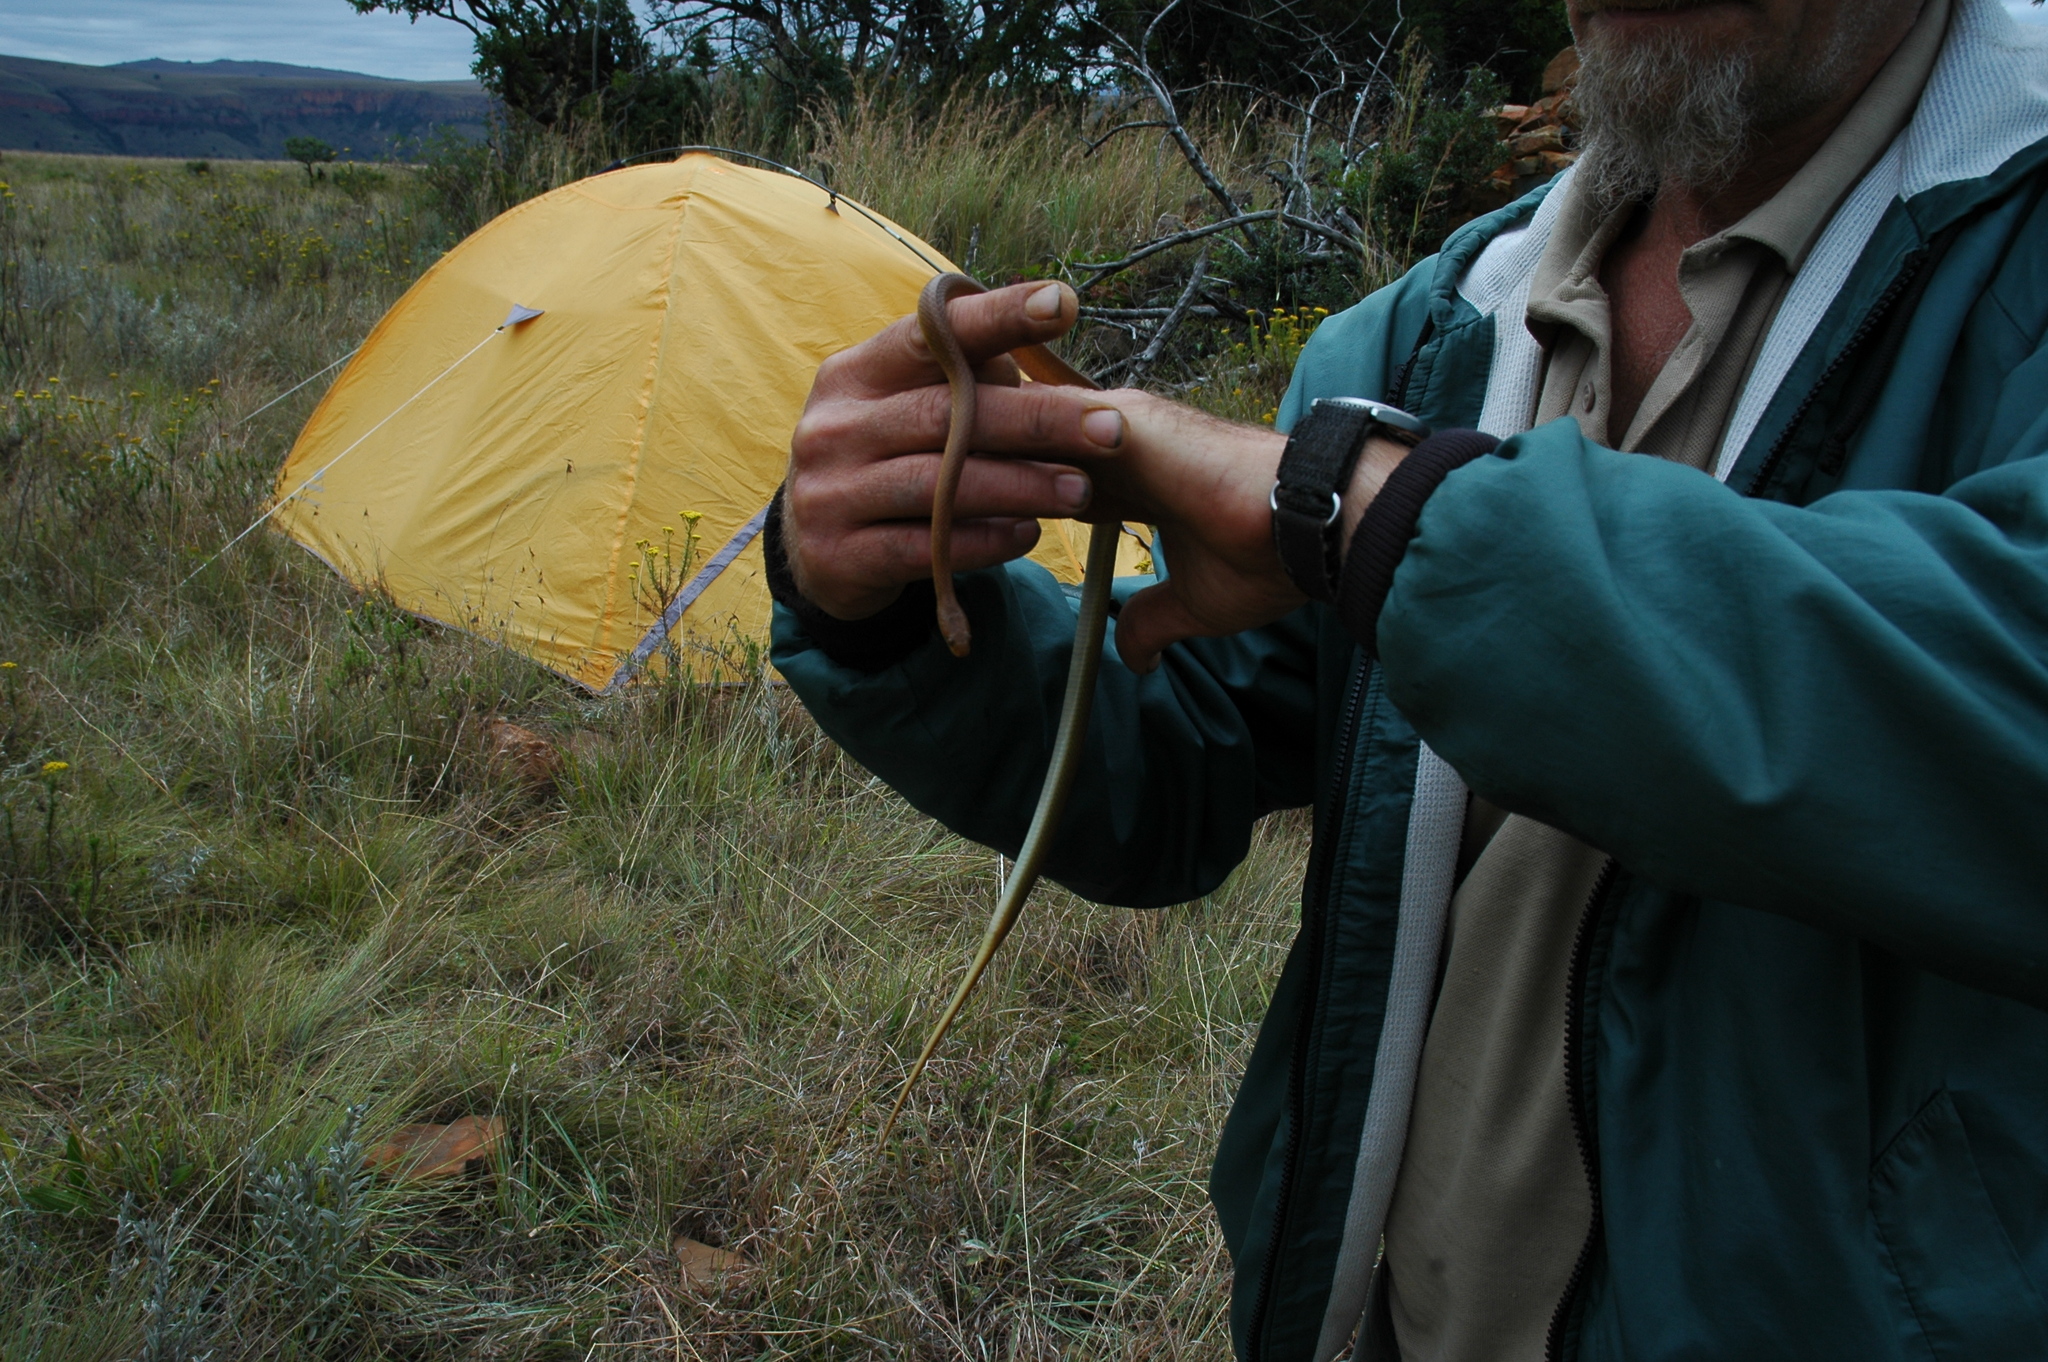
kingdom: Animalia
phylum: Chordata
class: Squamata
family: Lamprophiidae
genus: Inyoka
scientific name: Inyoka swazicus
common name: Swazi rock snake
